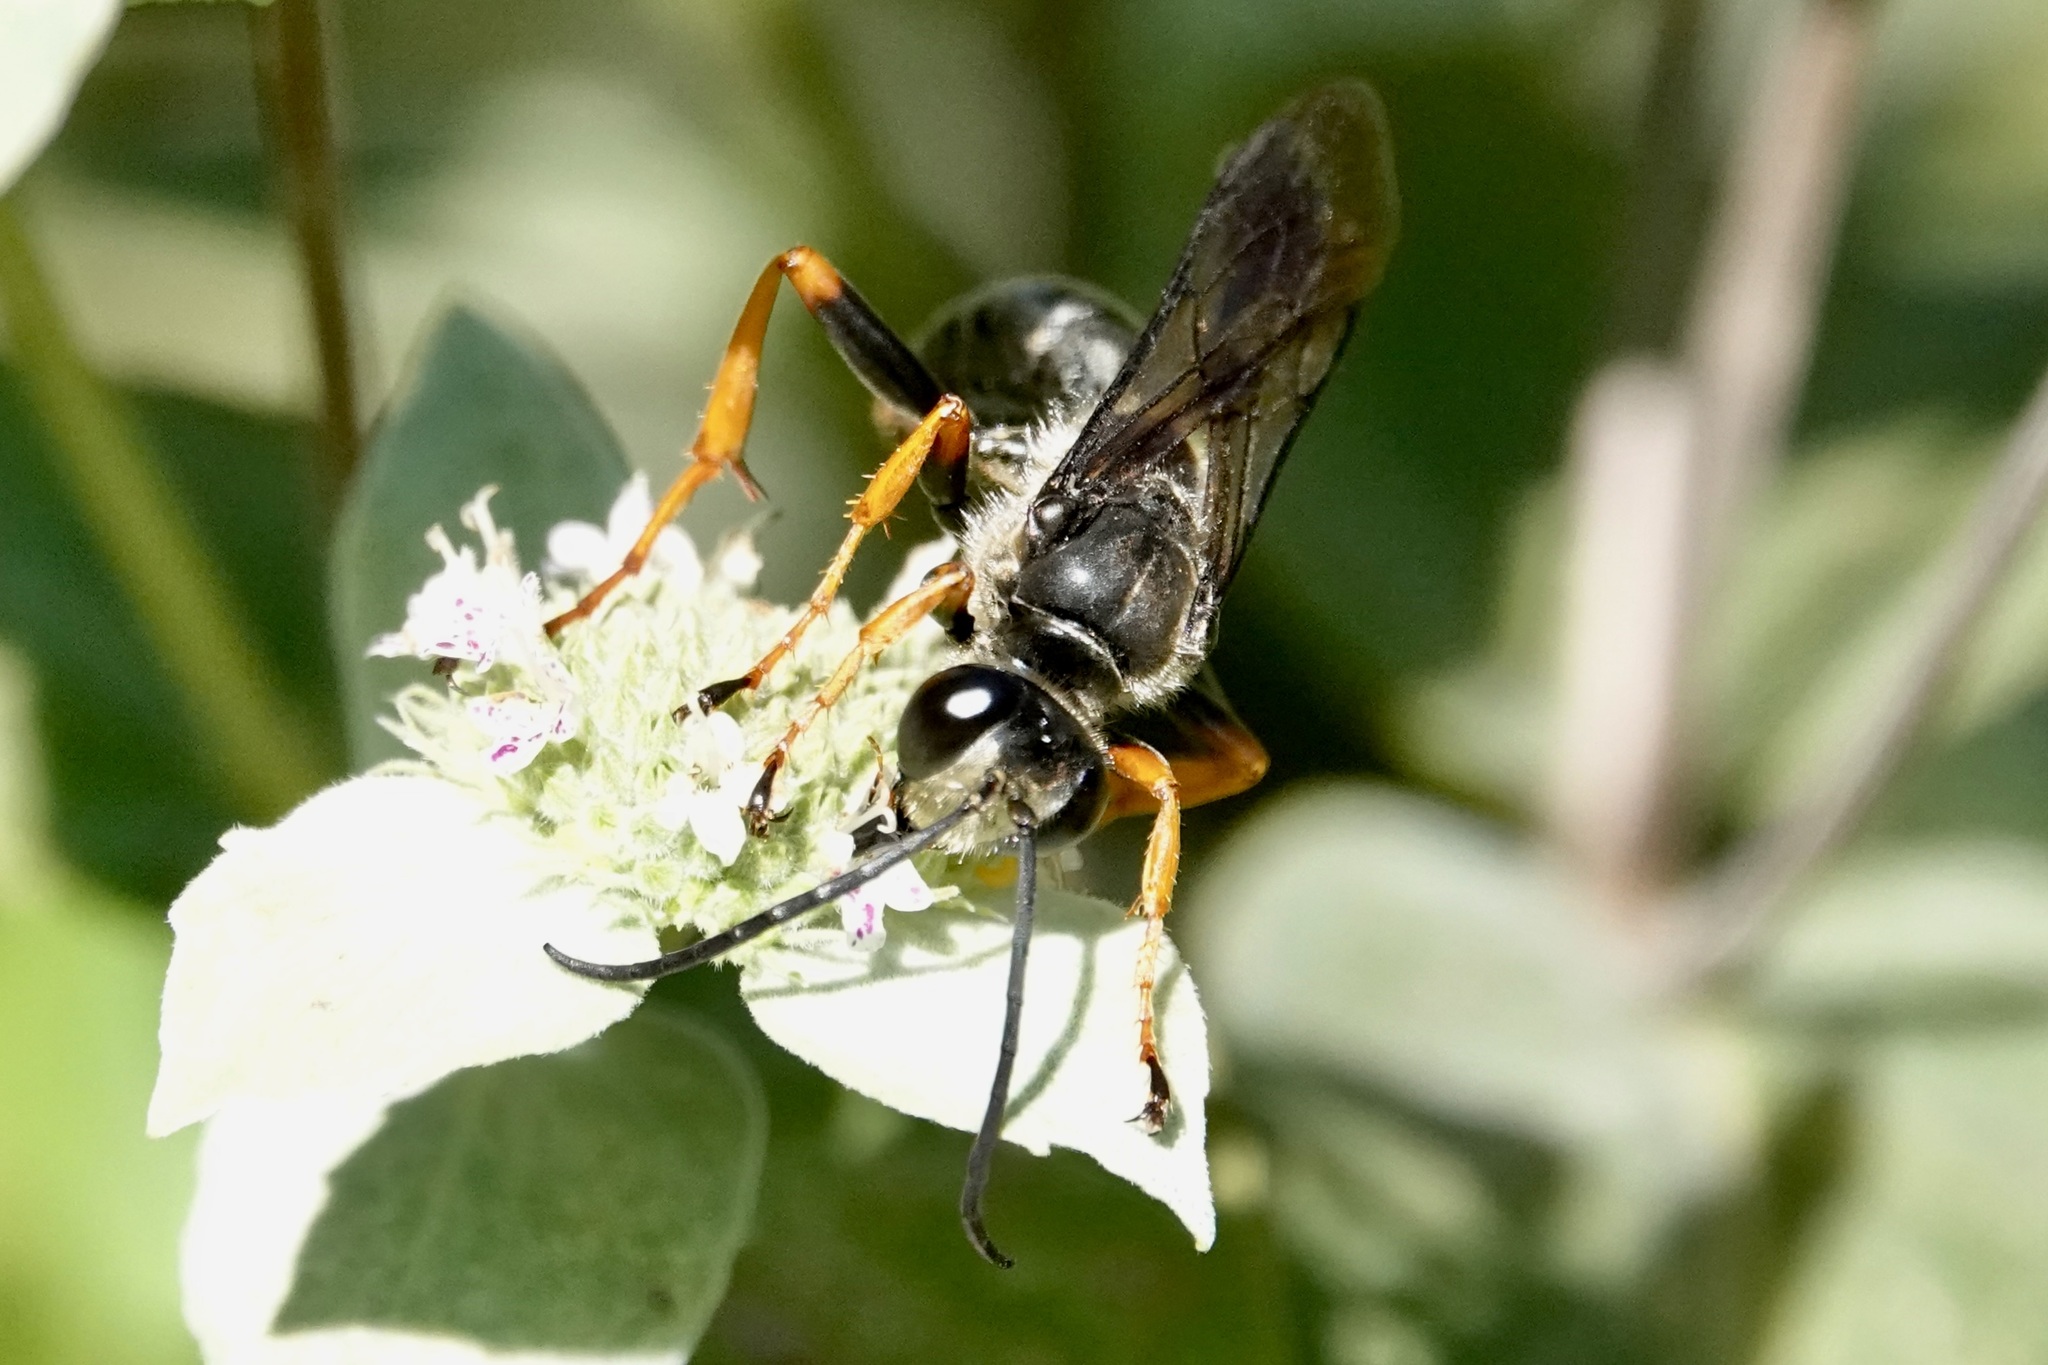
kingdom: Animalia
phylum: Arthropoda
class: Insecta
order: Hymenoptera
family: Sphecidae
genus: Sphex
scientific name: Sphex nudus
